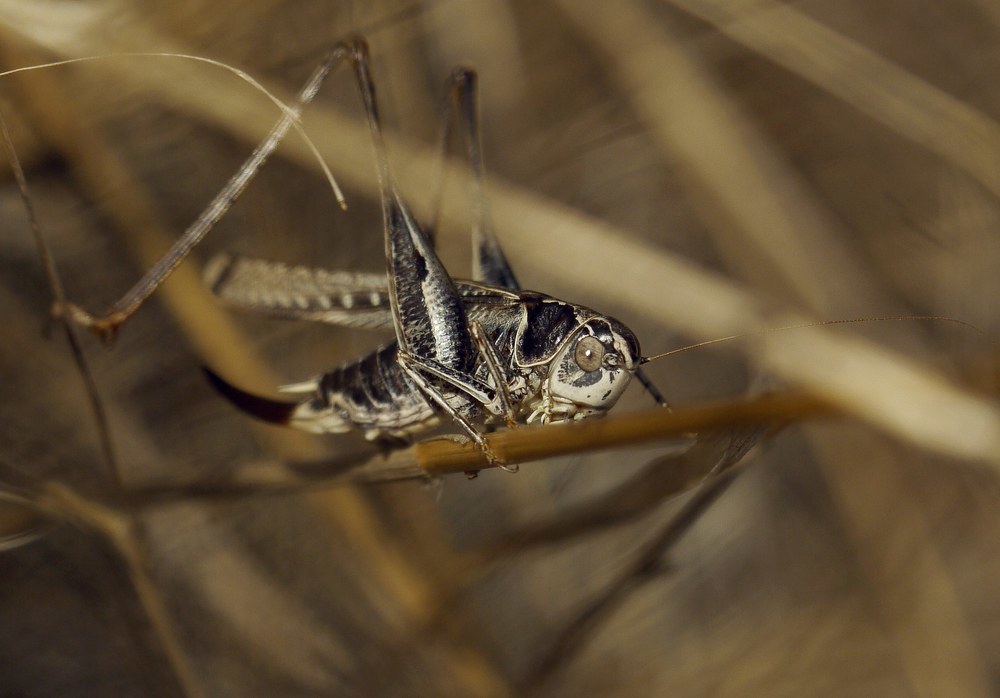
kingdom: Animalia
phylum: Arthropoda
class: Insecta
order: Orthoptera
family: Tettigoniidae
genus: Platycleis
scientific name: Platycleis affinis
